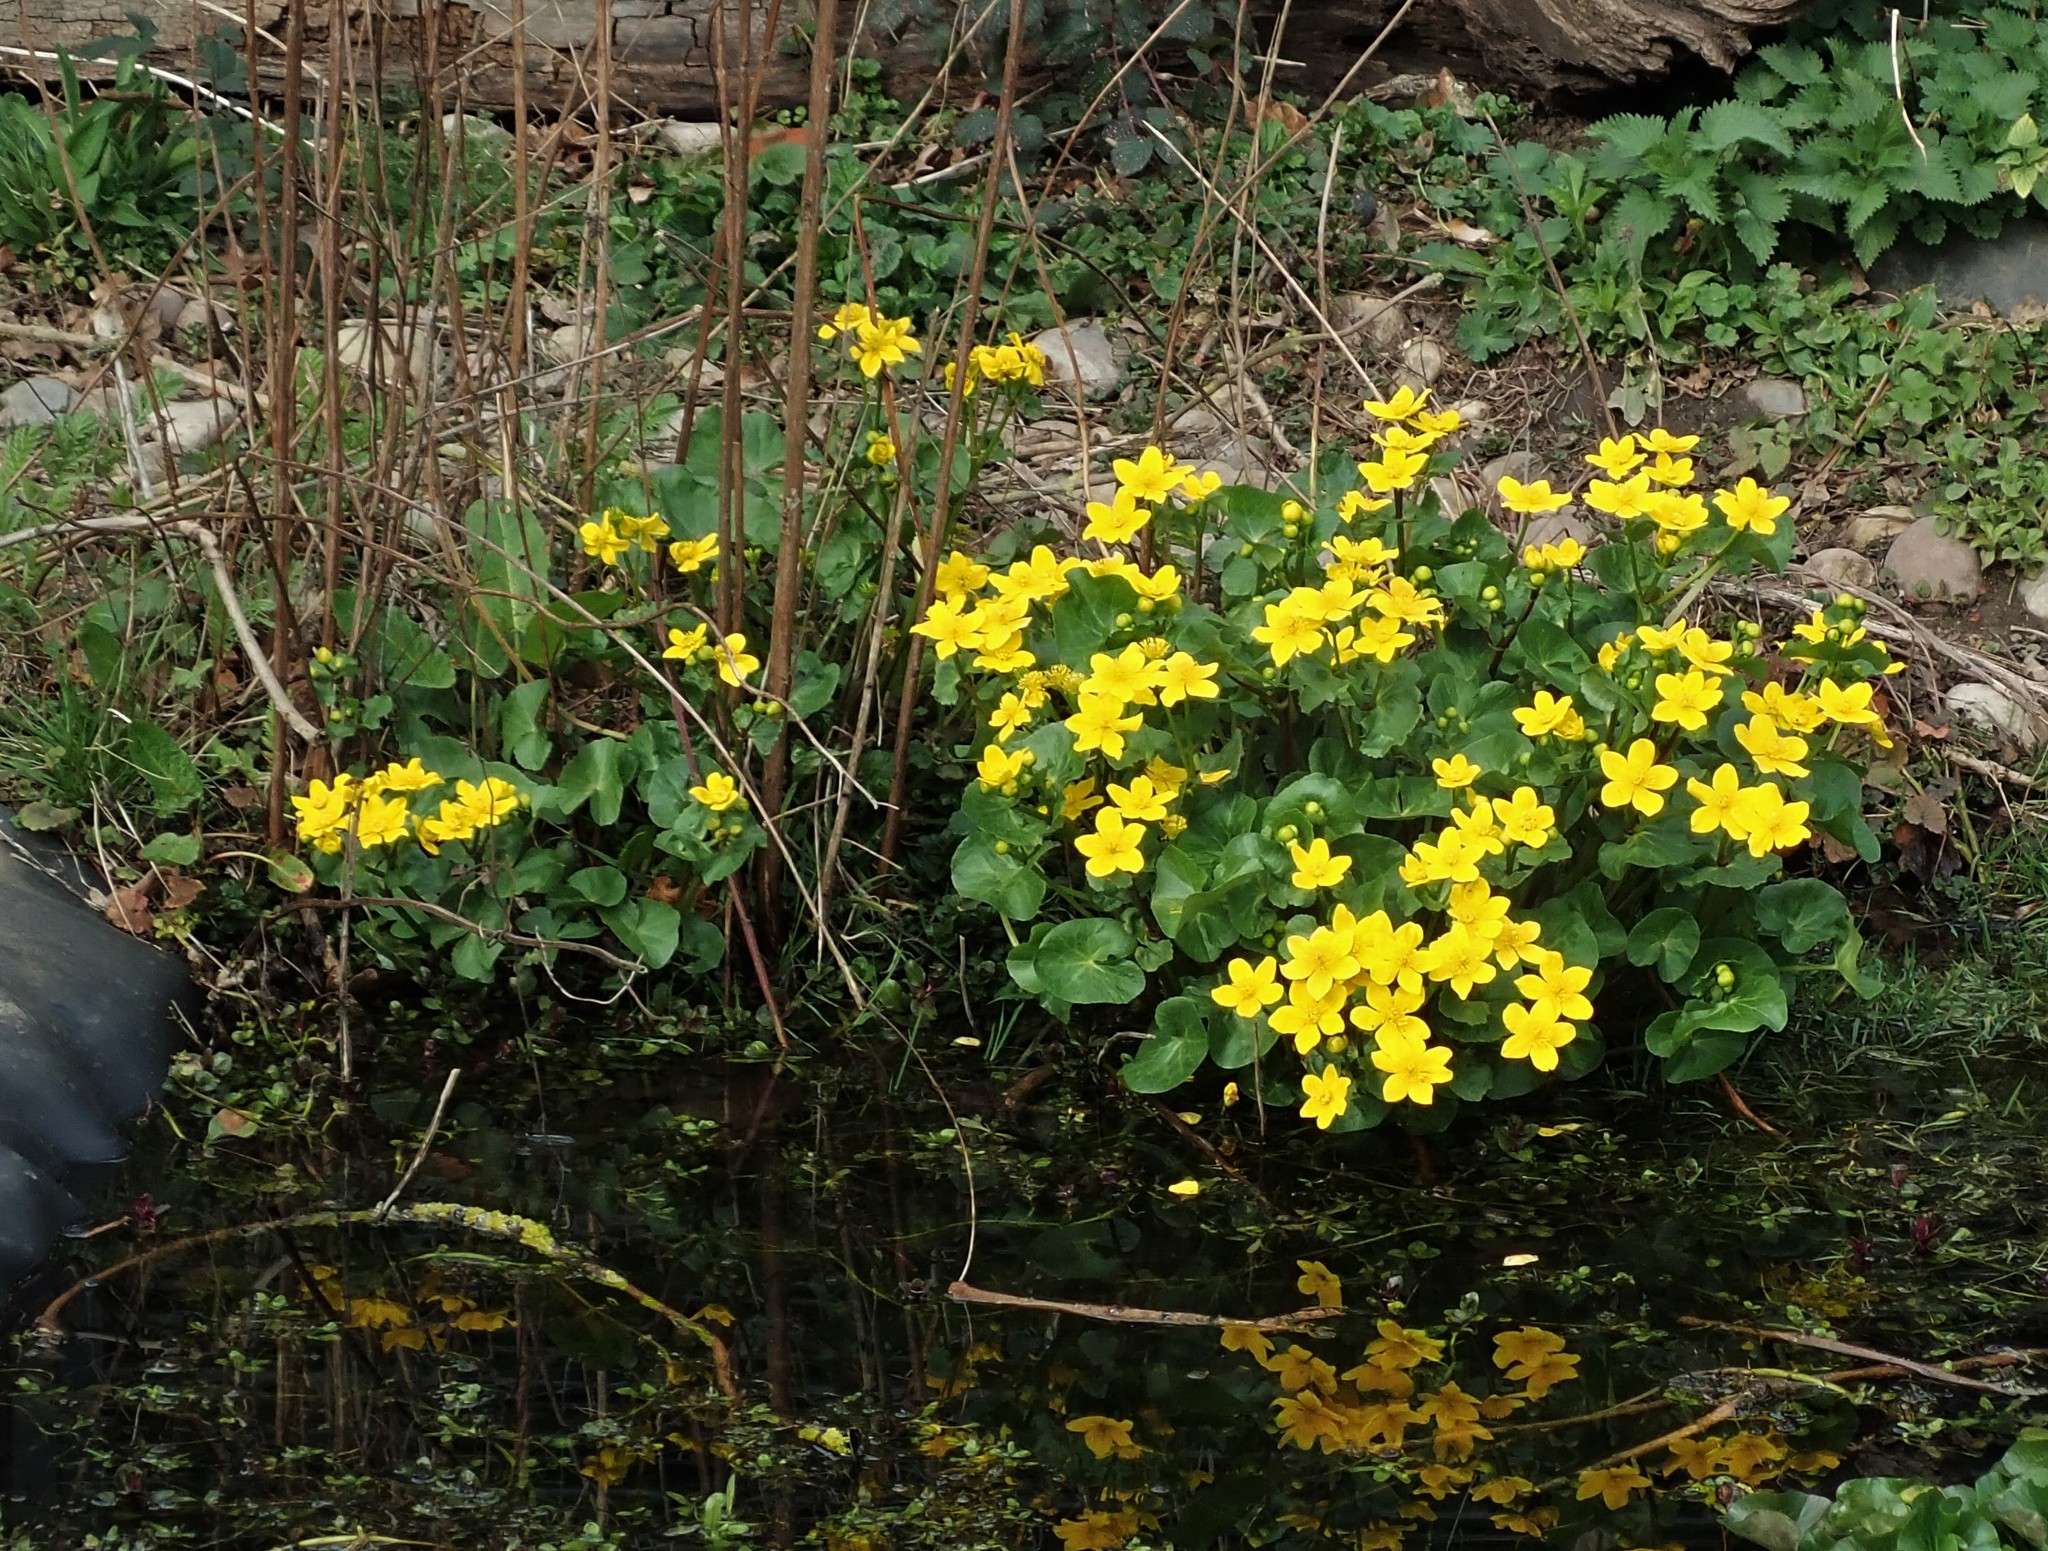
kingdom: Plantae
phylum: Tracheophyta
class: Magnoliopsida
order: Ranunculales
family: Ranunculaceae
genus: Caltha
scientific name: Caltha palustris
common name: Marsh marigold
